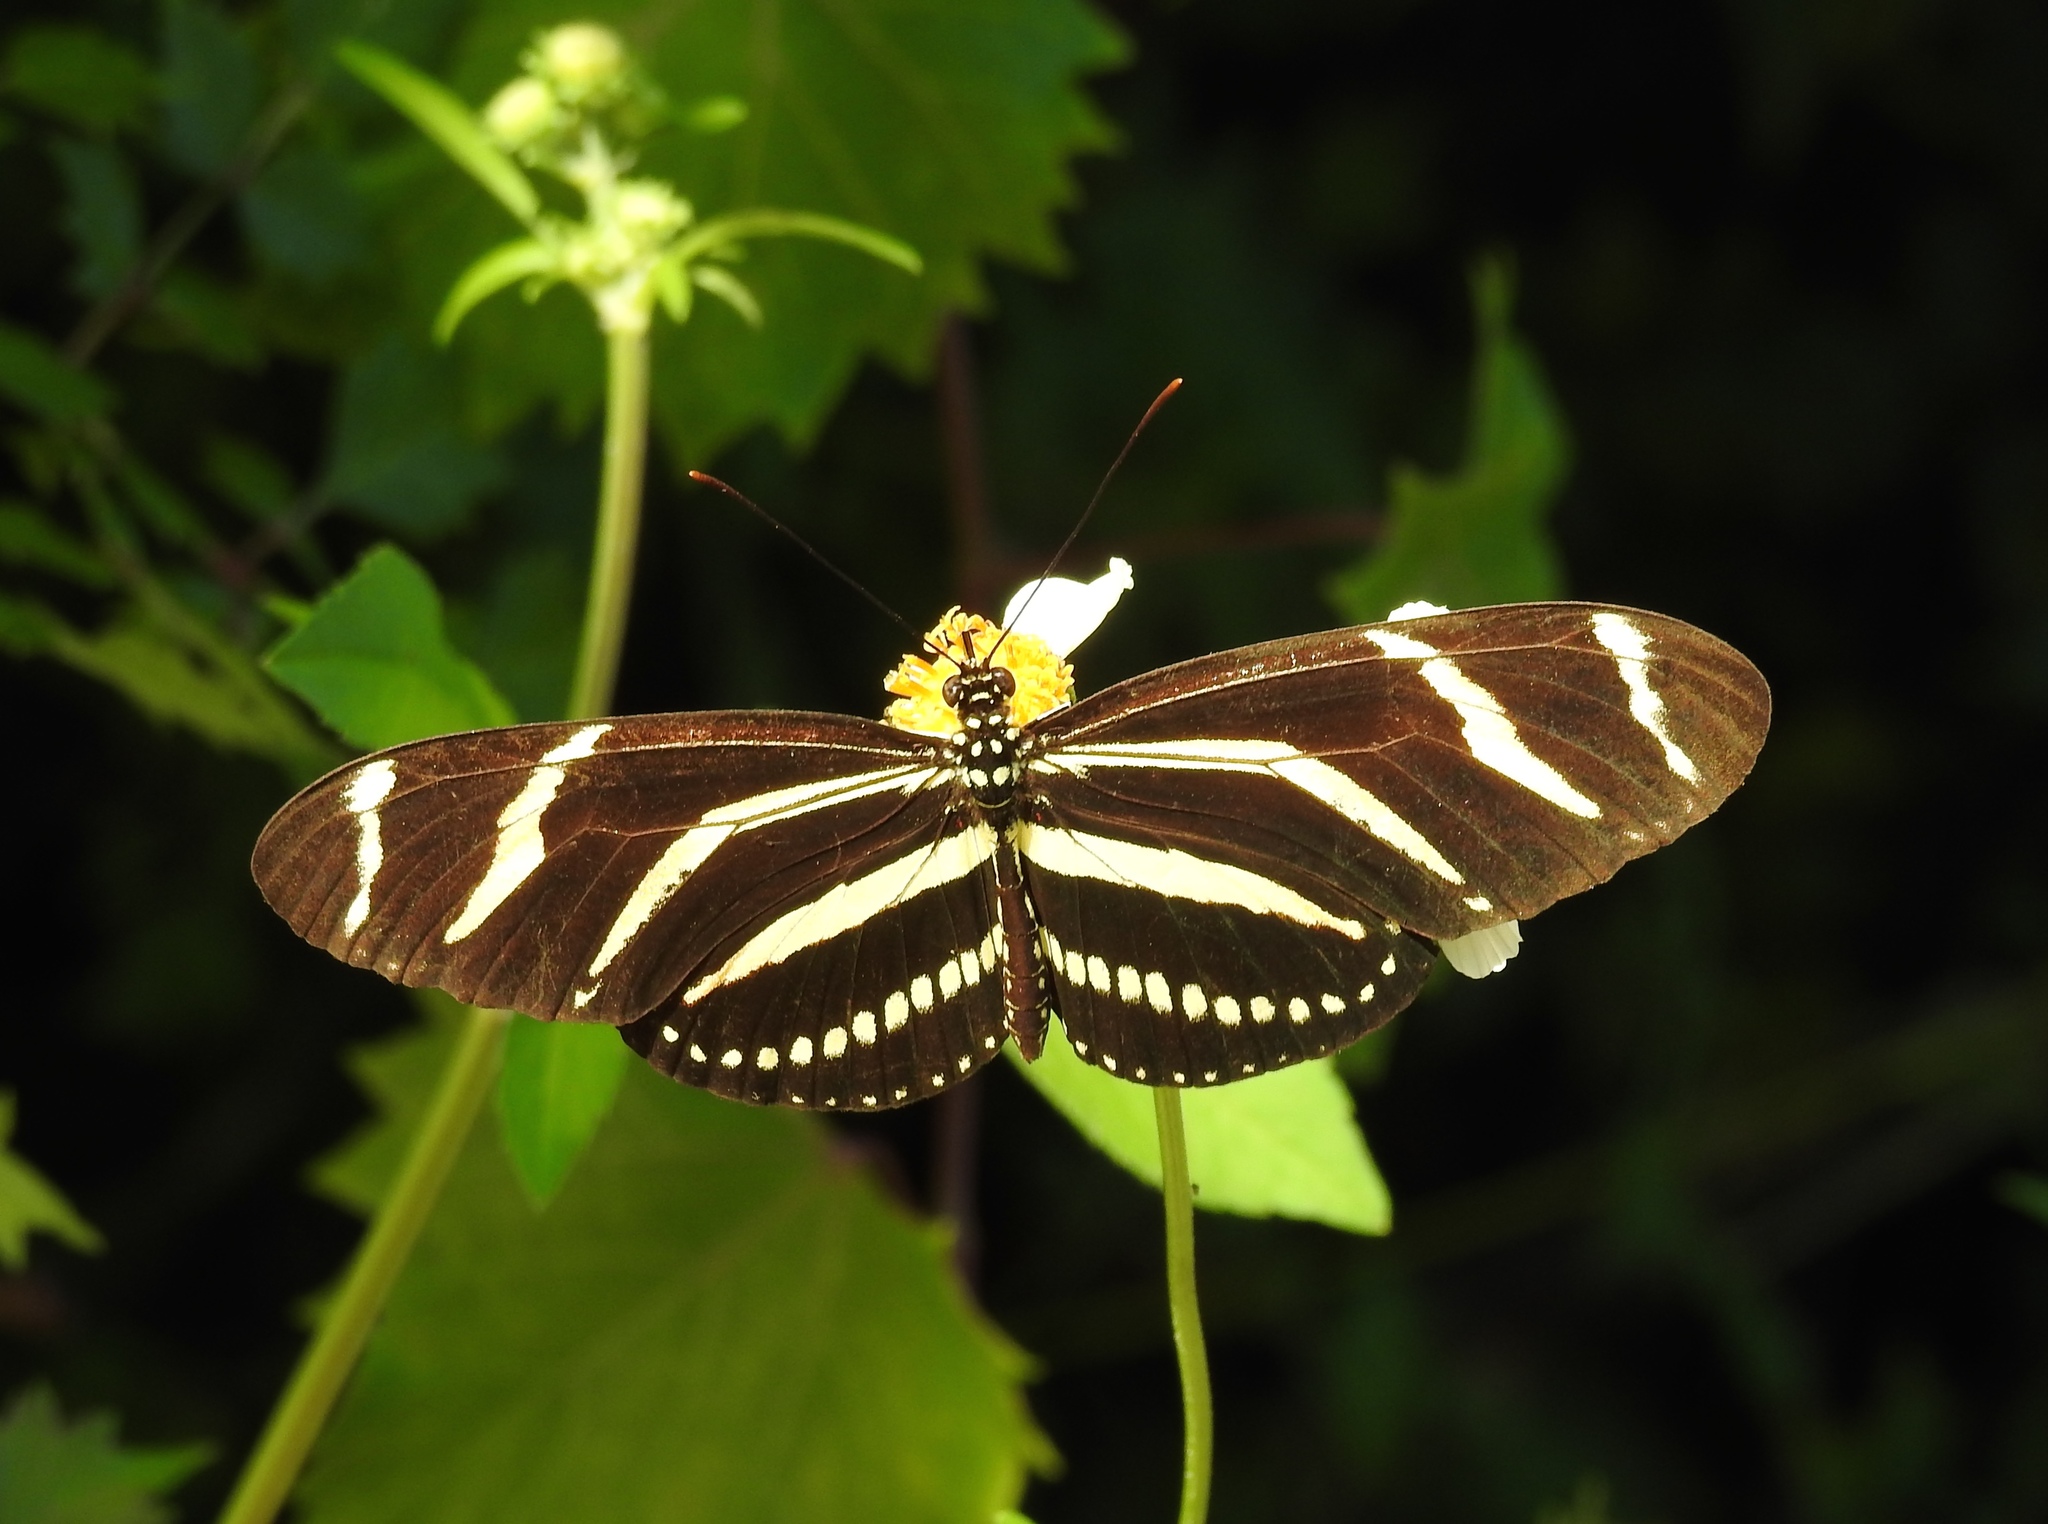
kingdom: Animalia
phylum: Arthropoda
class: Insecta
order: Lepidoptera
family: Nymphalidae
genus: Heliconius
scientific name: Heliconius charithonia
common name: Zebra long wing
